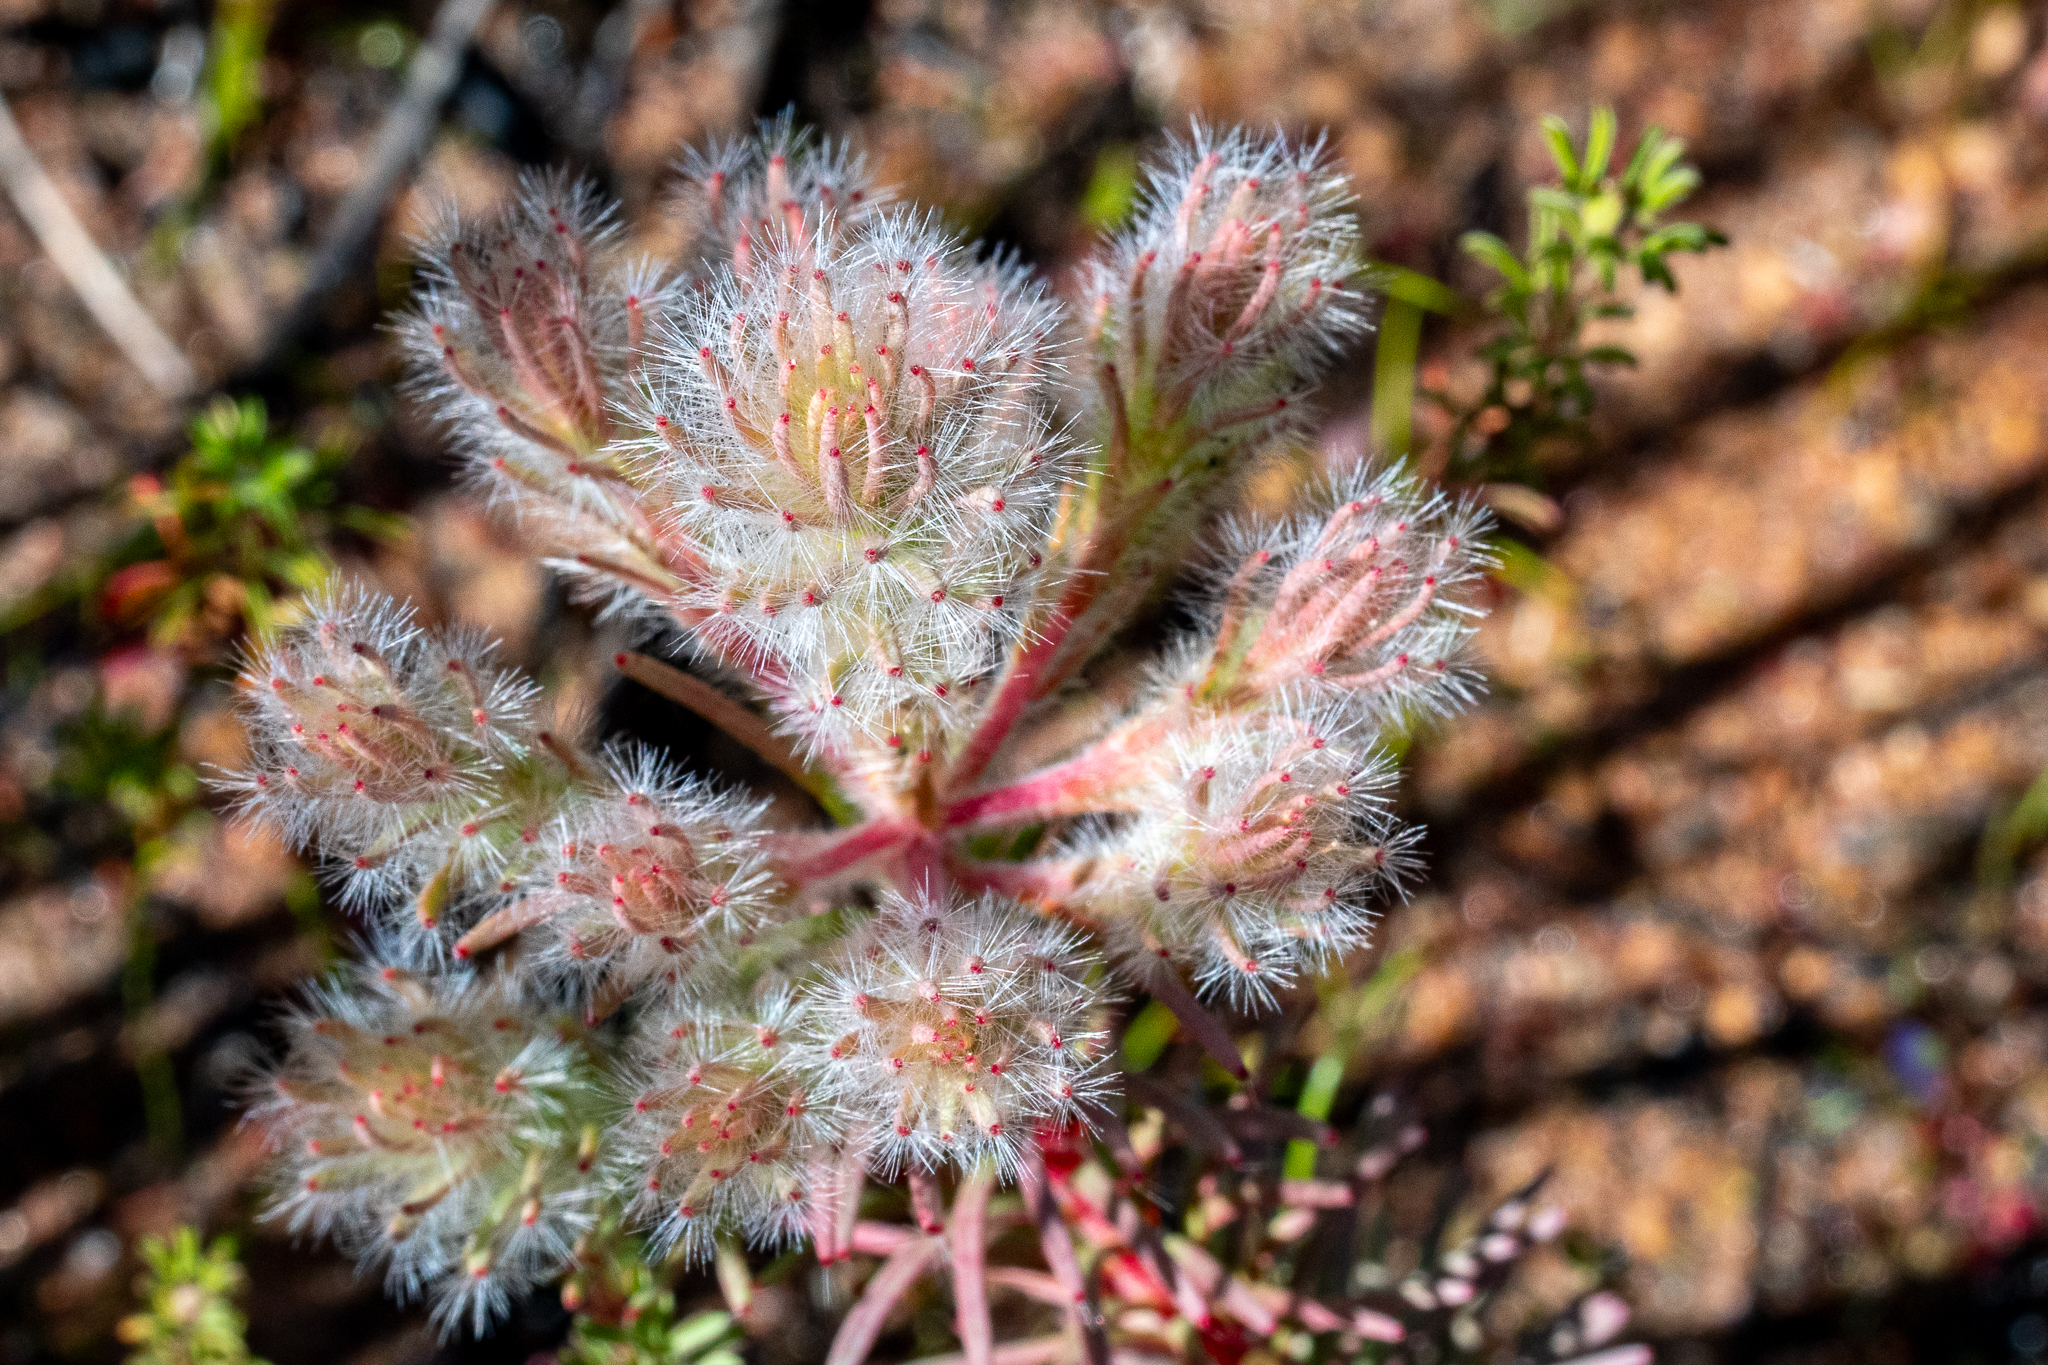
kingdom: Plantae
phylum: Tracheophyta
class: Magnoliopsida
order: Proteales
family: Proteaceae
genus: Leucadendron
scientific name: Leucadendron corymbosum
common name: Swartveld conebush
